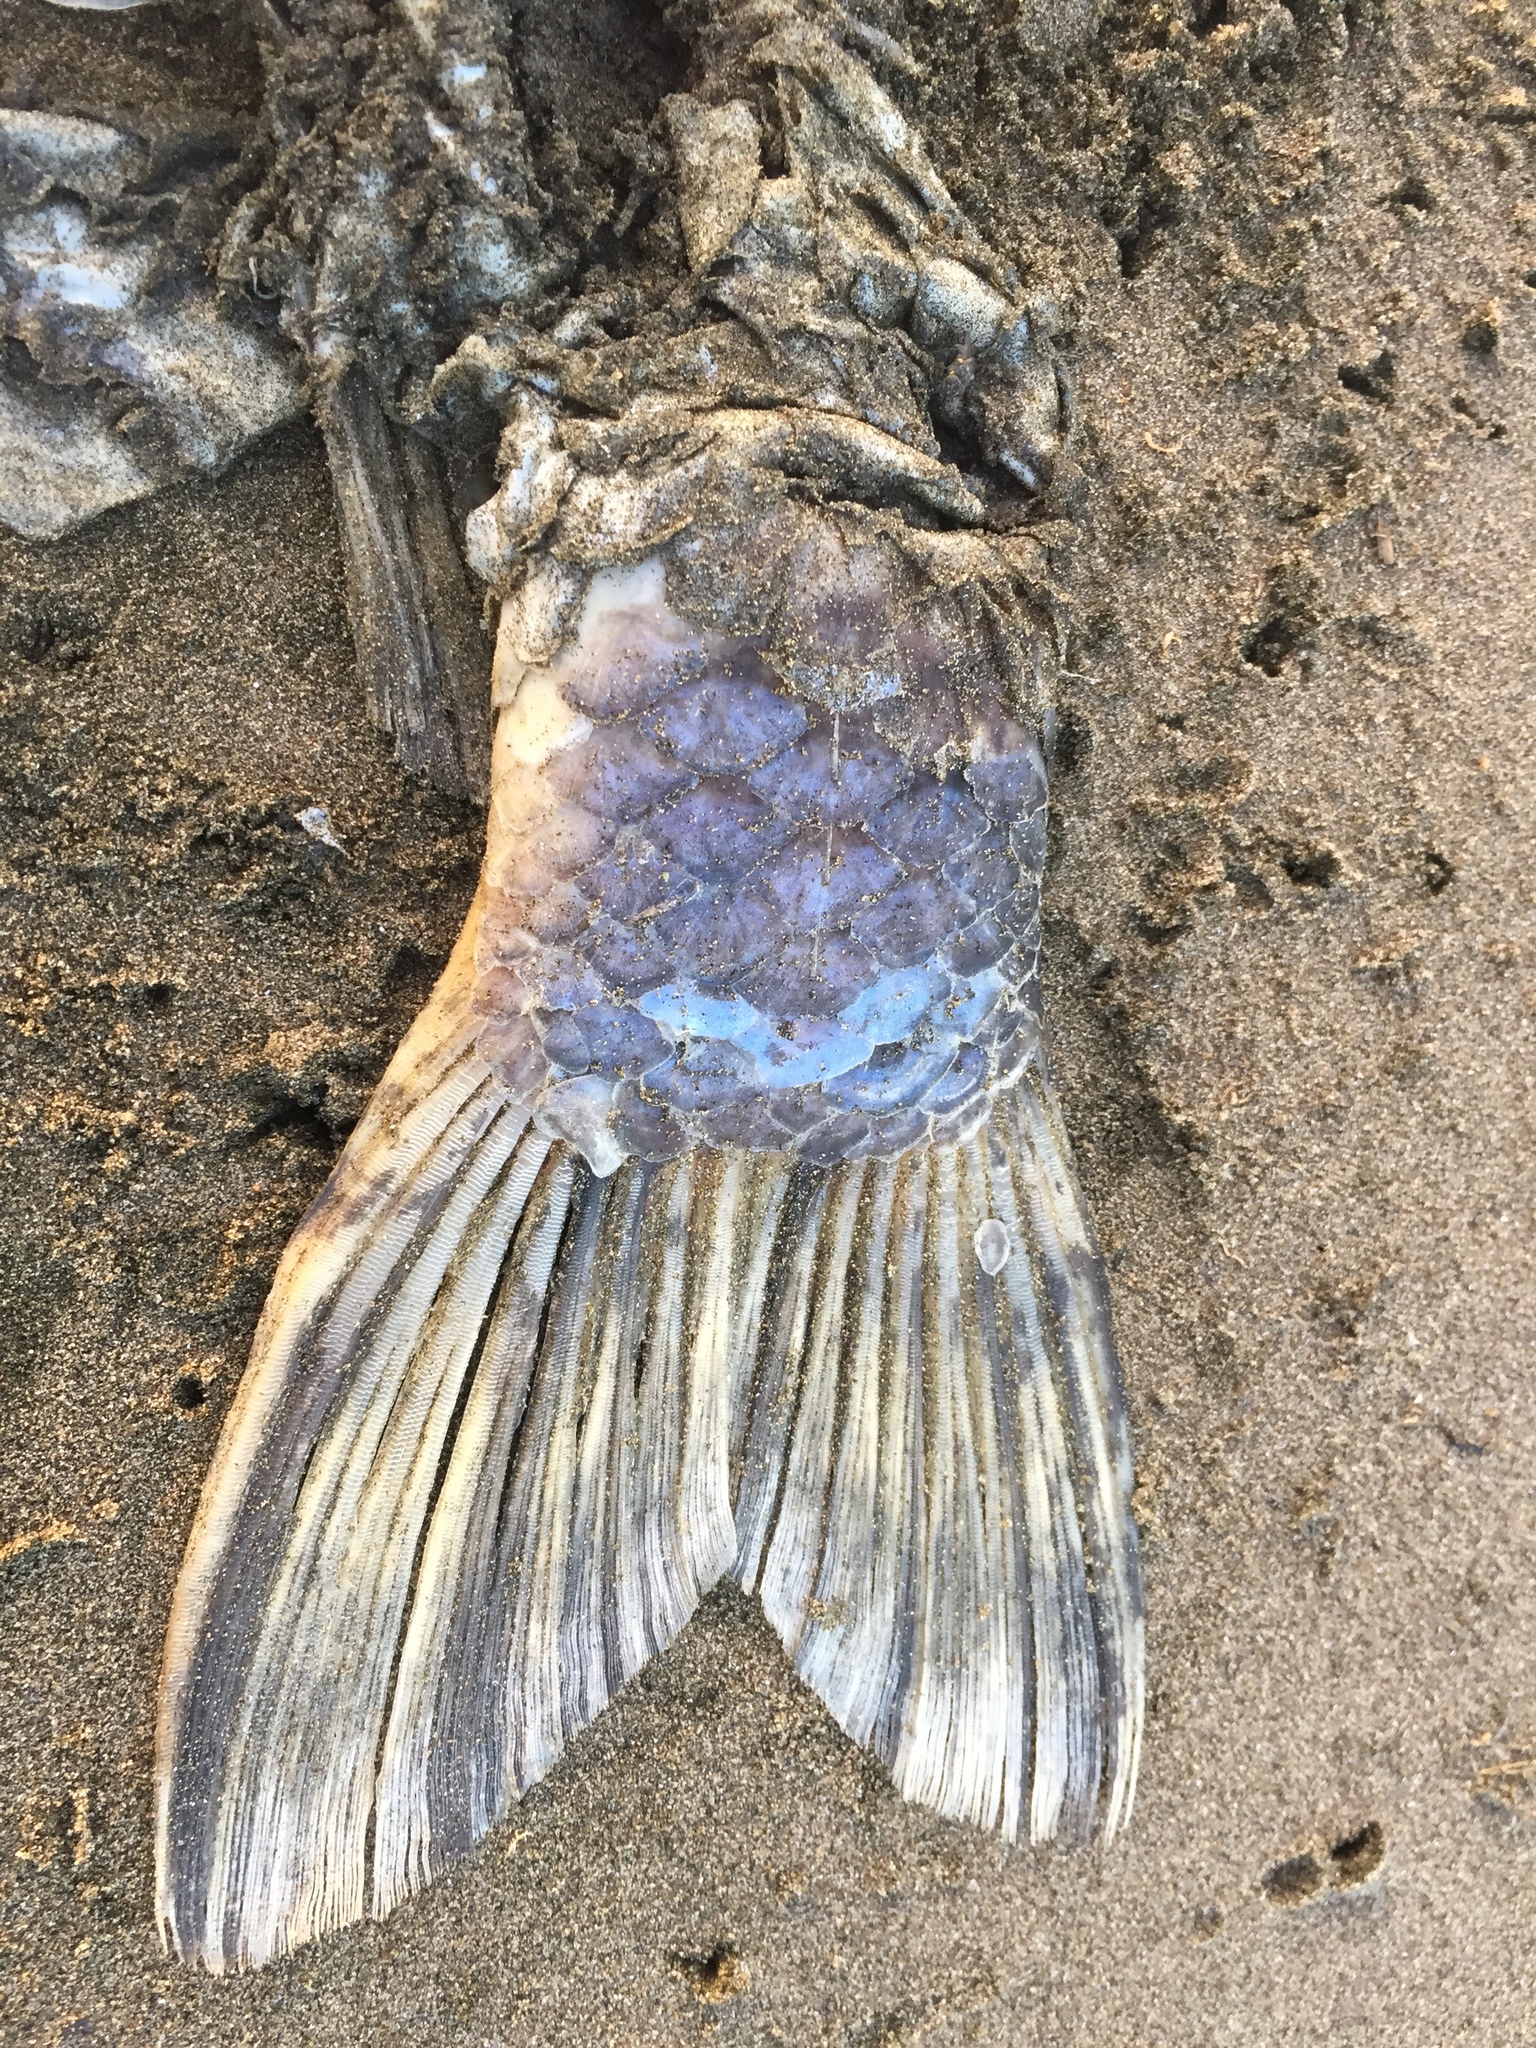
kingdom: Animalia
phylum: Chordata
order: Cypriniformes
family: Cyprinidae
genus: Cyprinus
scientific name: Cyprinus rubrofuscus
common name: Koi
